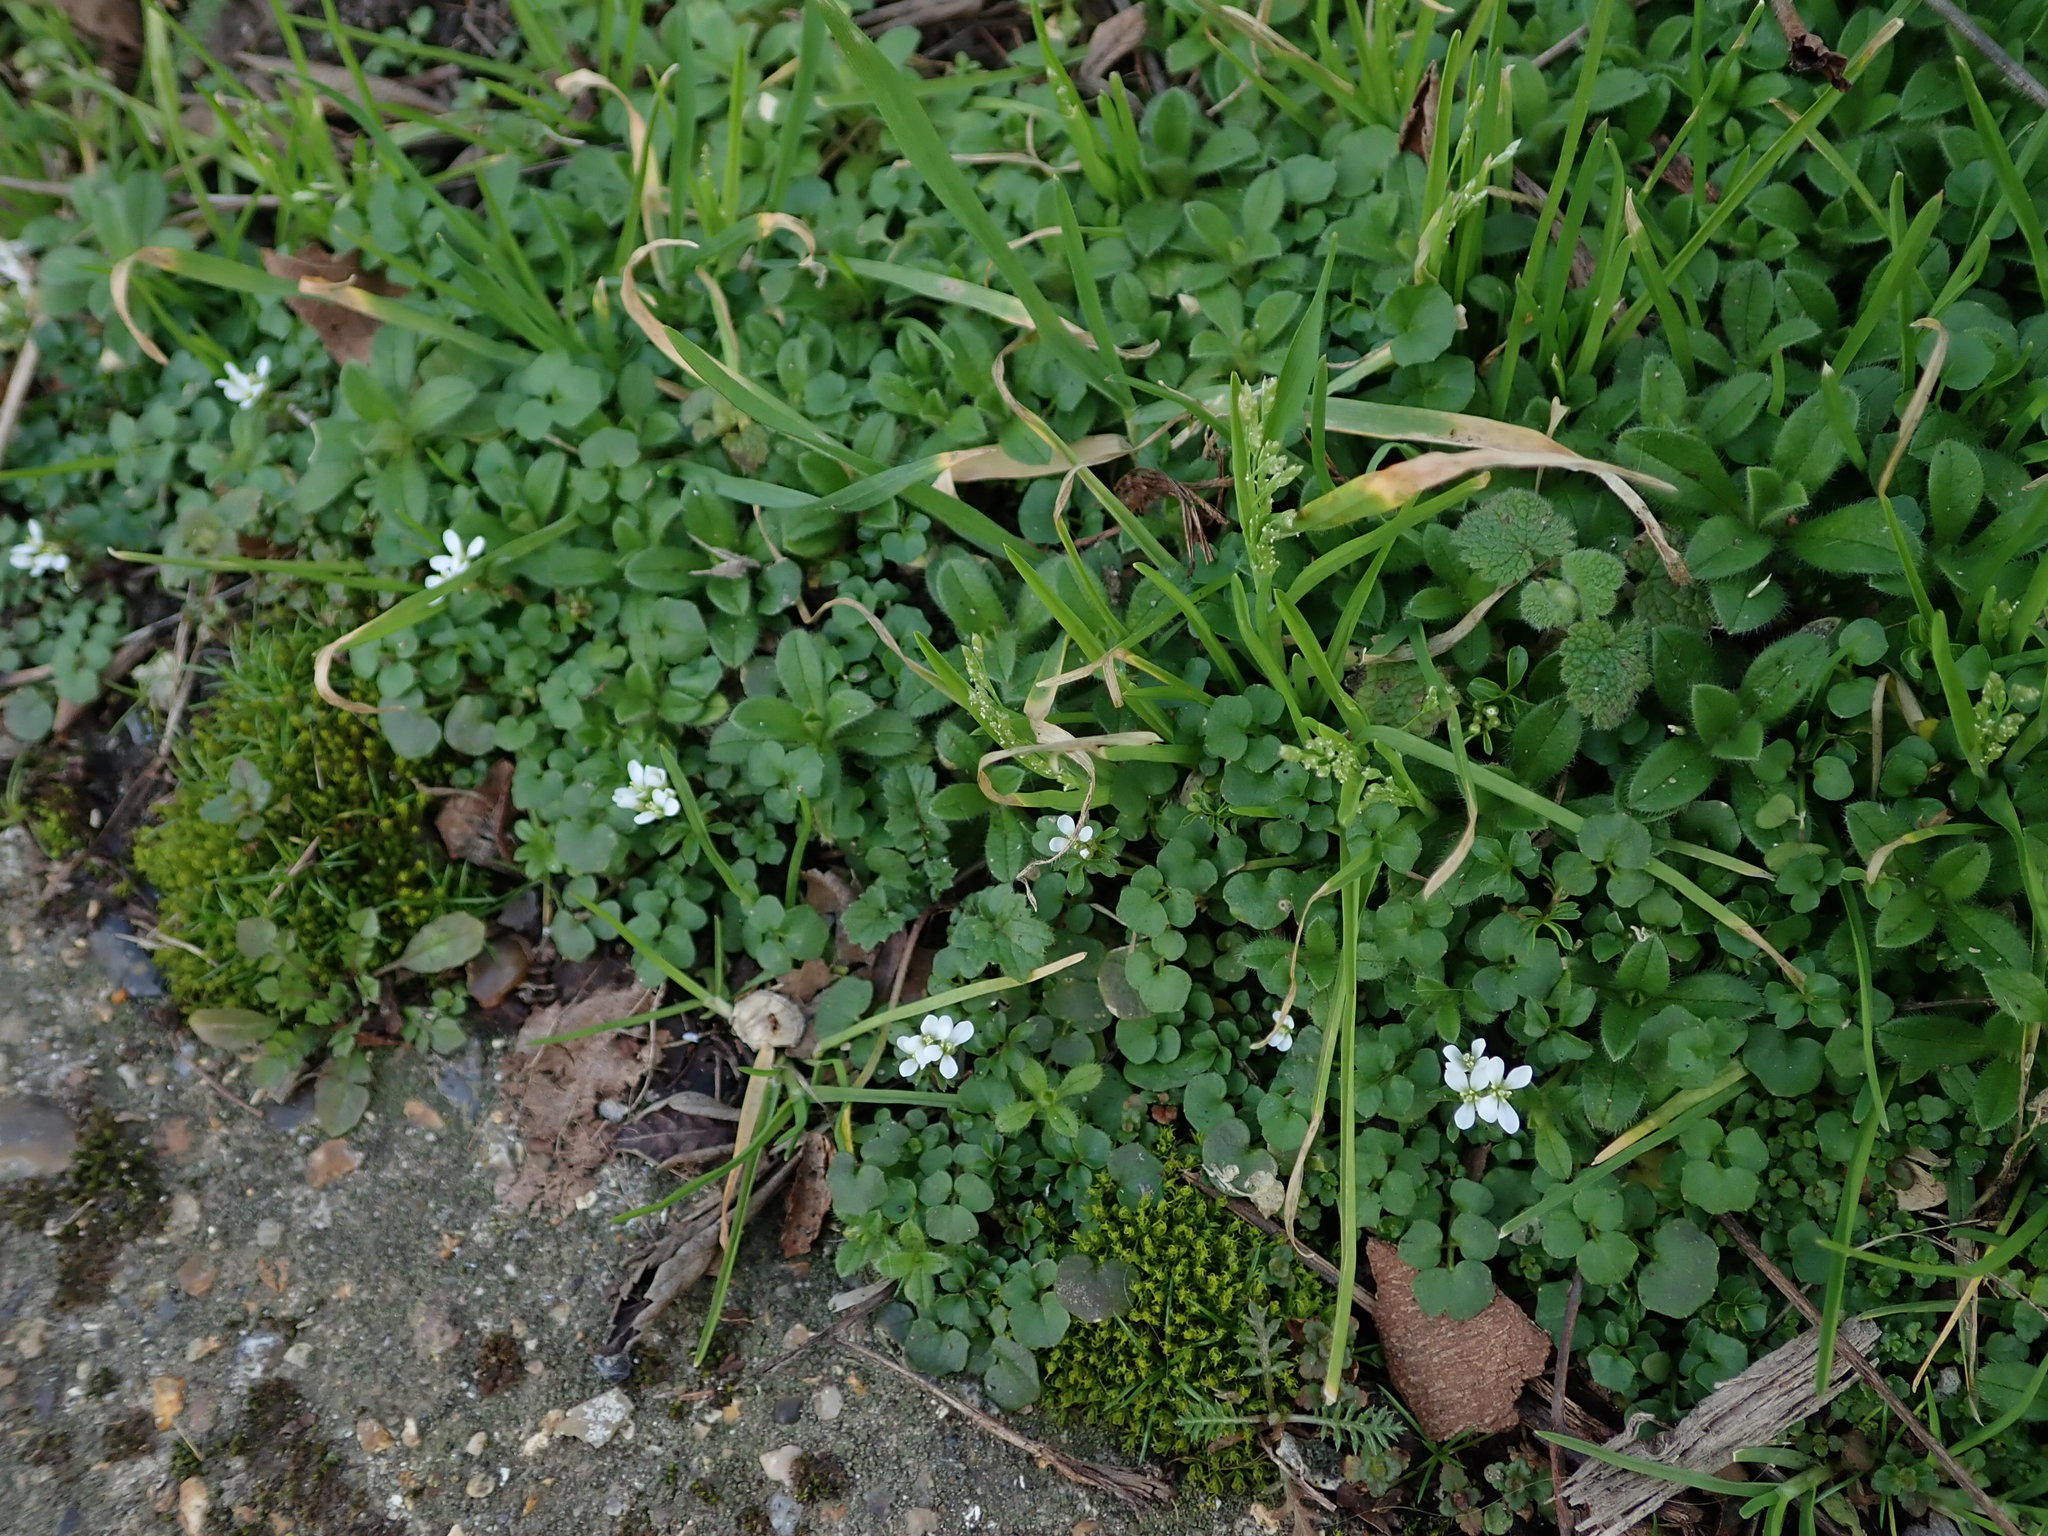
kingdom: Plantae
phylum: Tracheophyta
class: Magnoliopsida
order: Brassicales
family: Brassicaceae
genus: Cardamine
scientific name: Cardamine hirsuta
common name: Hairy bittercress
